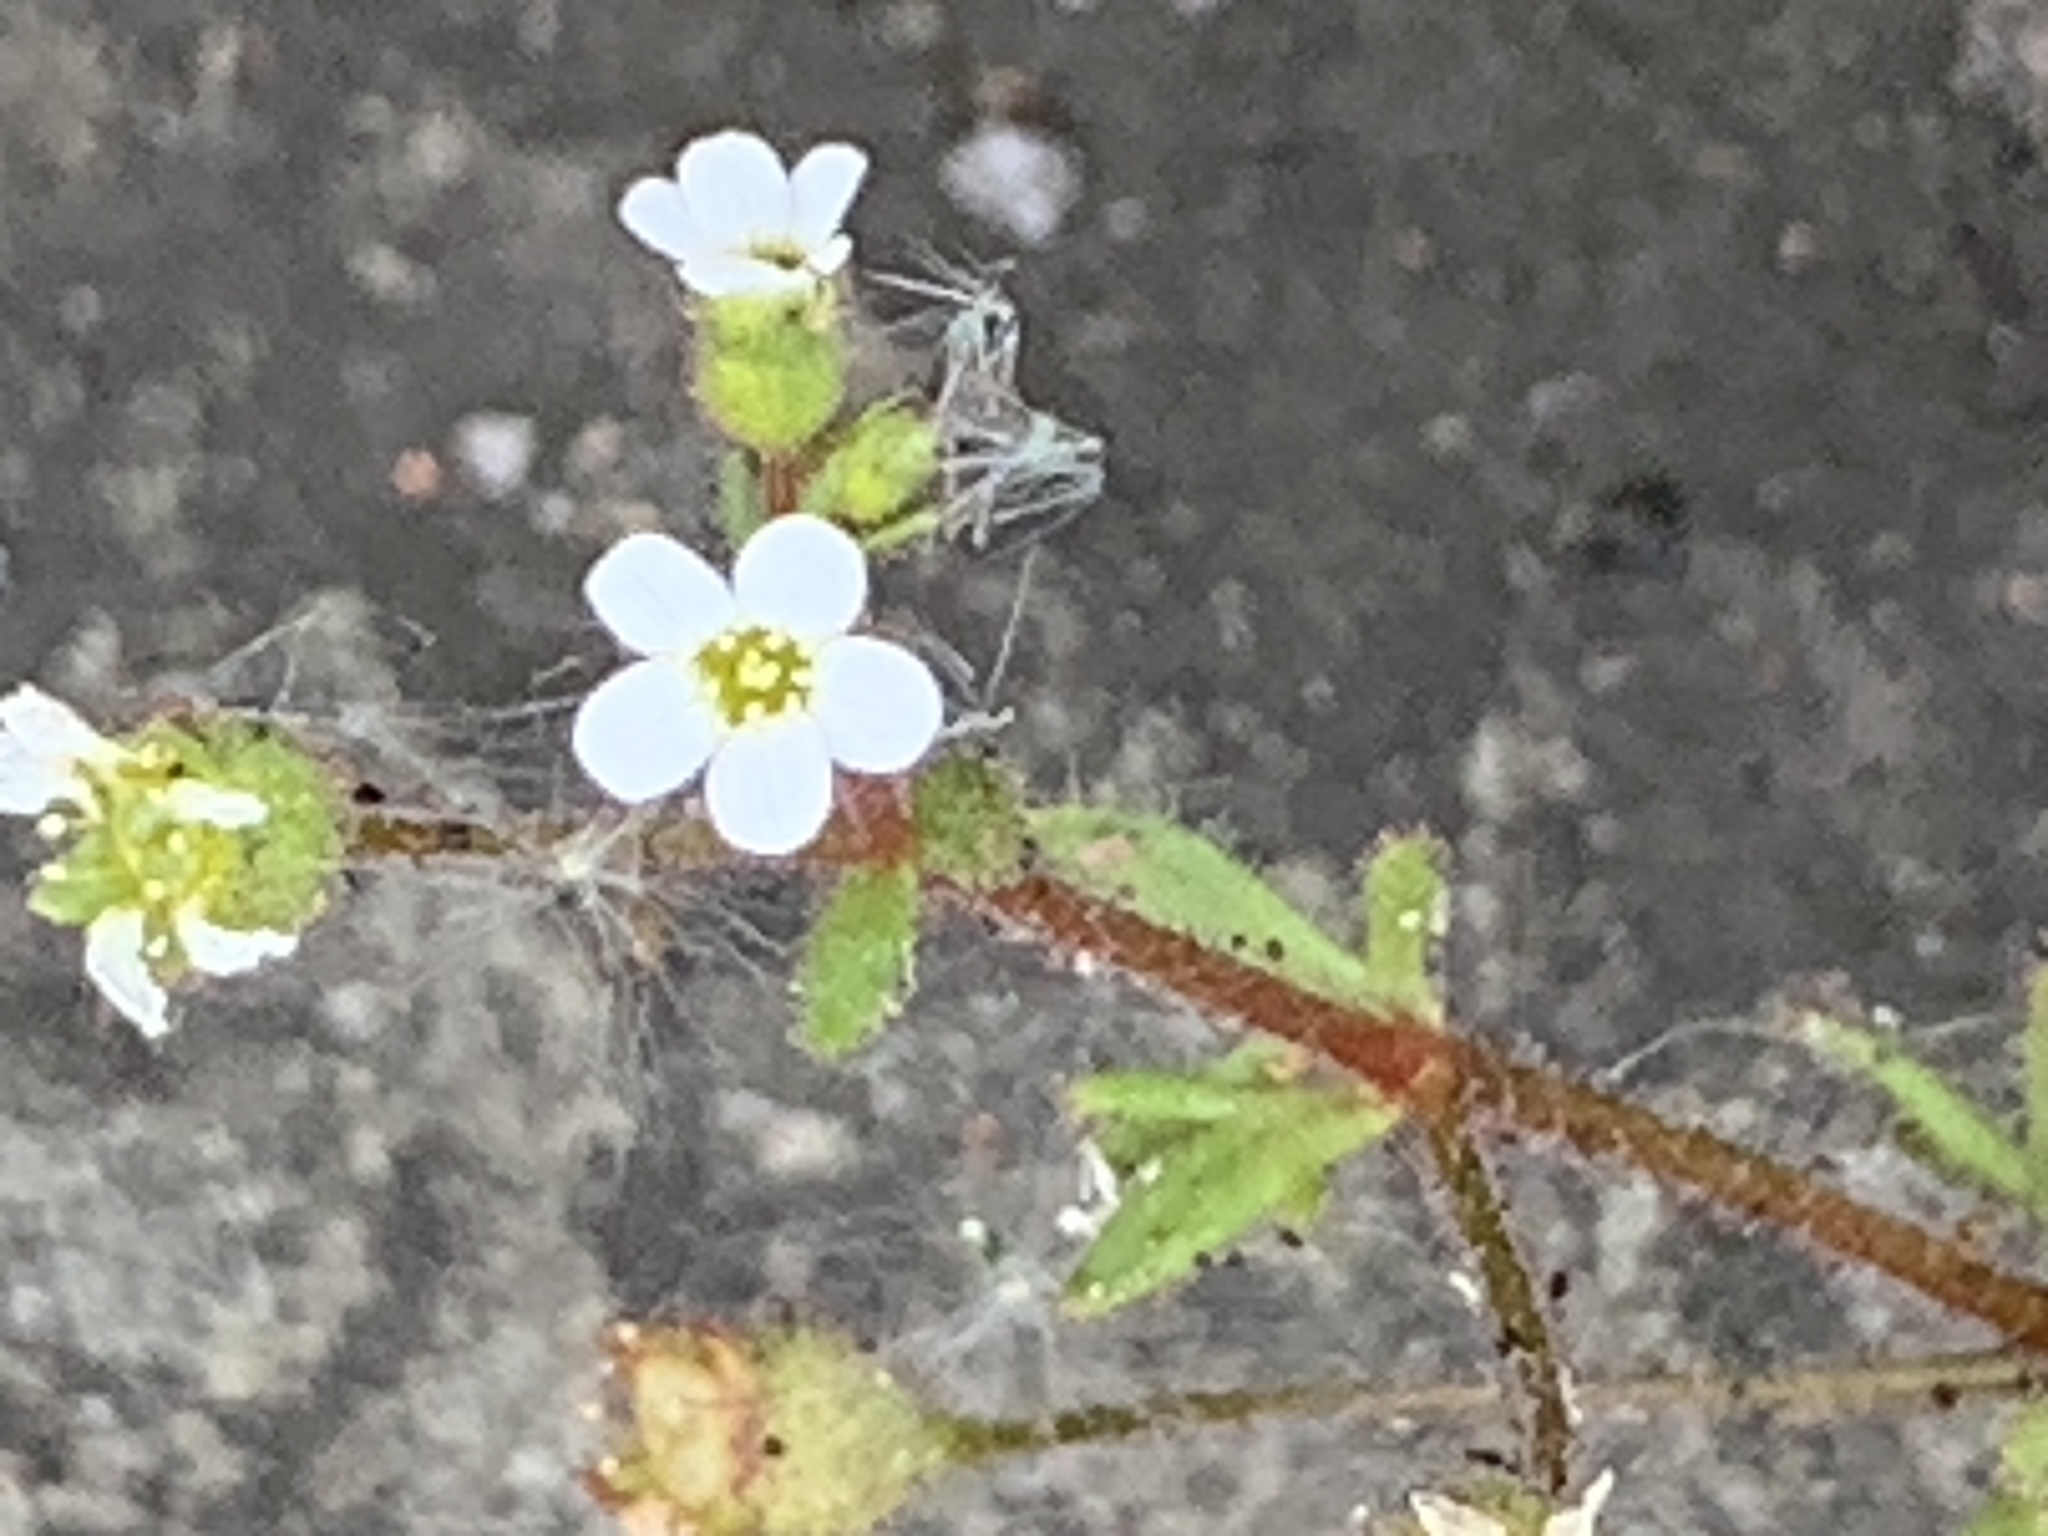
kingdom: Plantae
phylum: Tracheophyta
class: Magnoliopsida
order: Saxifragales
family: Saxifragaceae
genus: Saxifraga
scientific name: Saxifraga tridactylites
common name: Rue-leaved saxifrage
